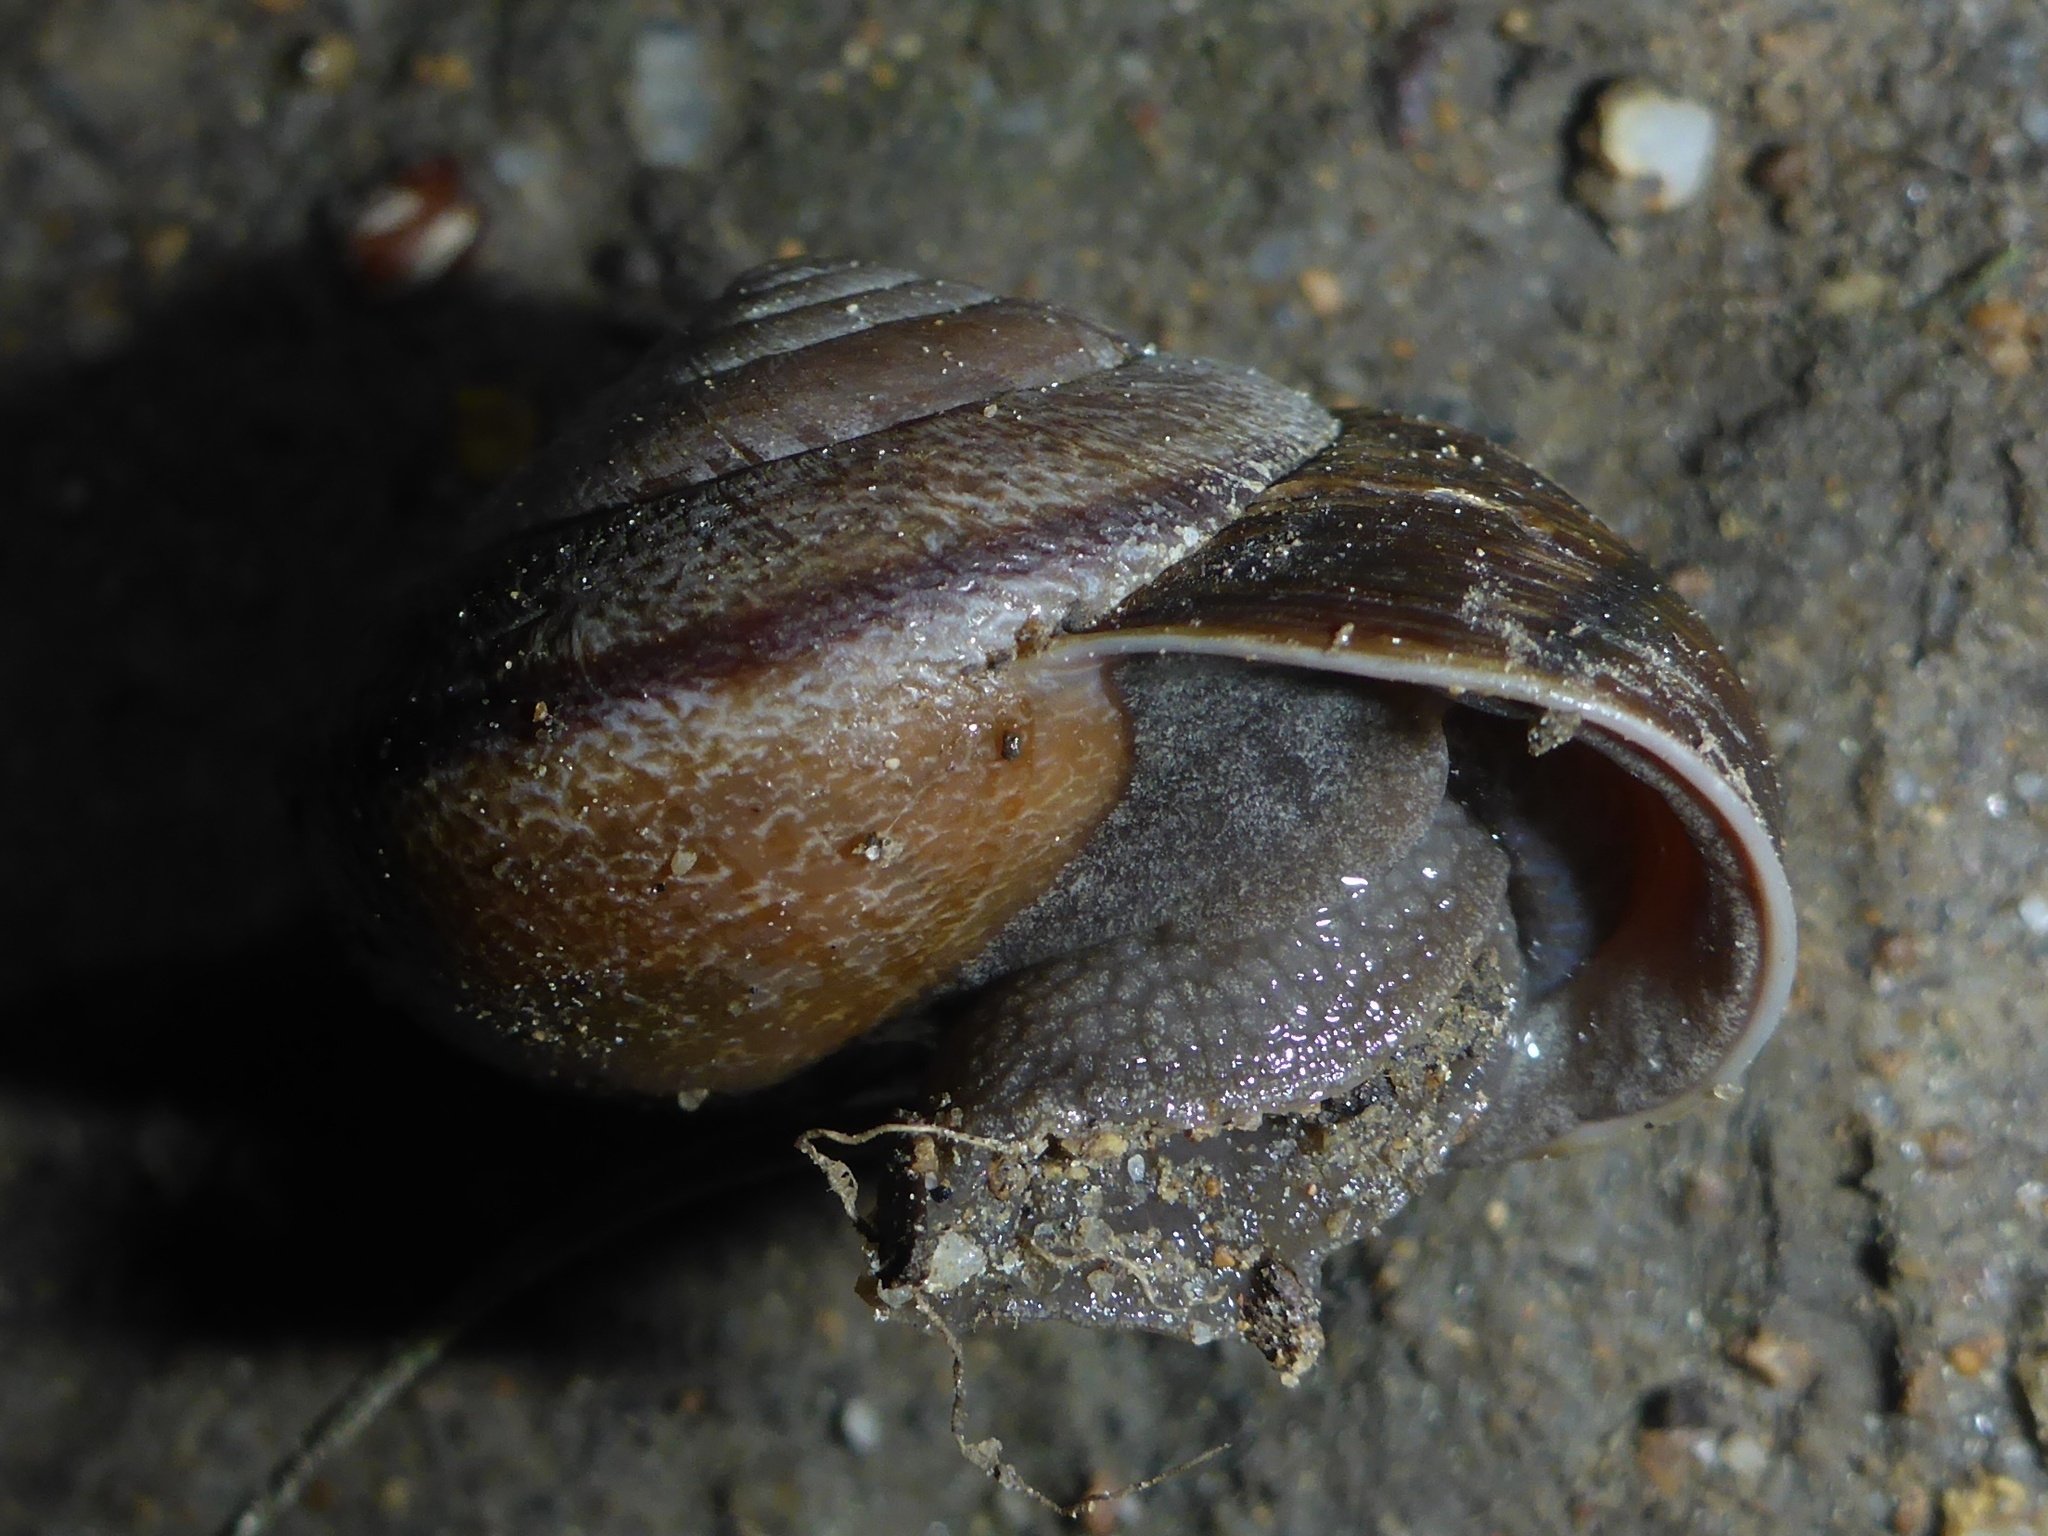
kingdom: Animalia
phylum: Mollusca
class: Gastropoda
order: Stylommatophora
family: Xanthonychidae
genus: Helminthoglypta
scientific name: Helminthoglypta arrosa
